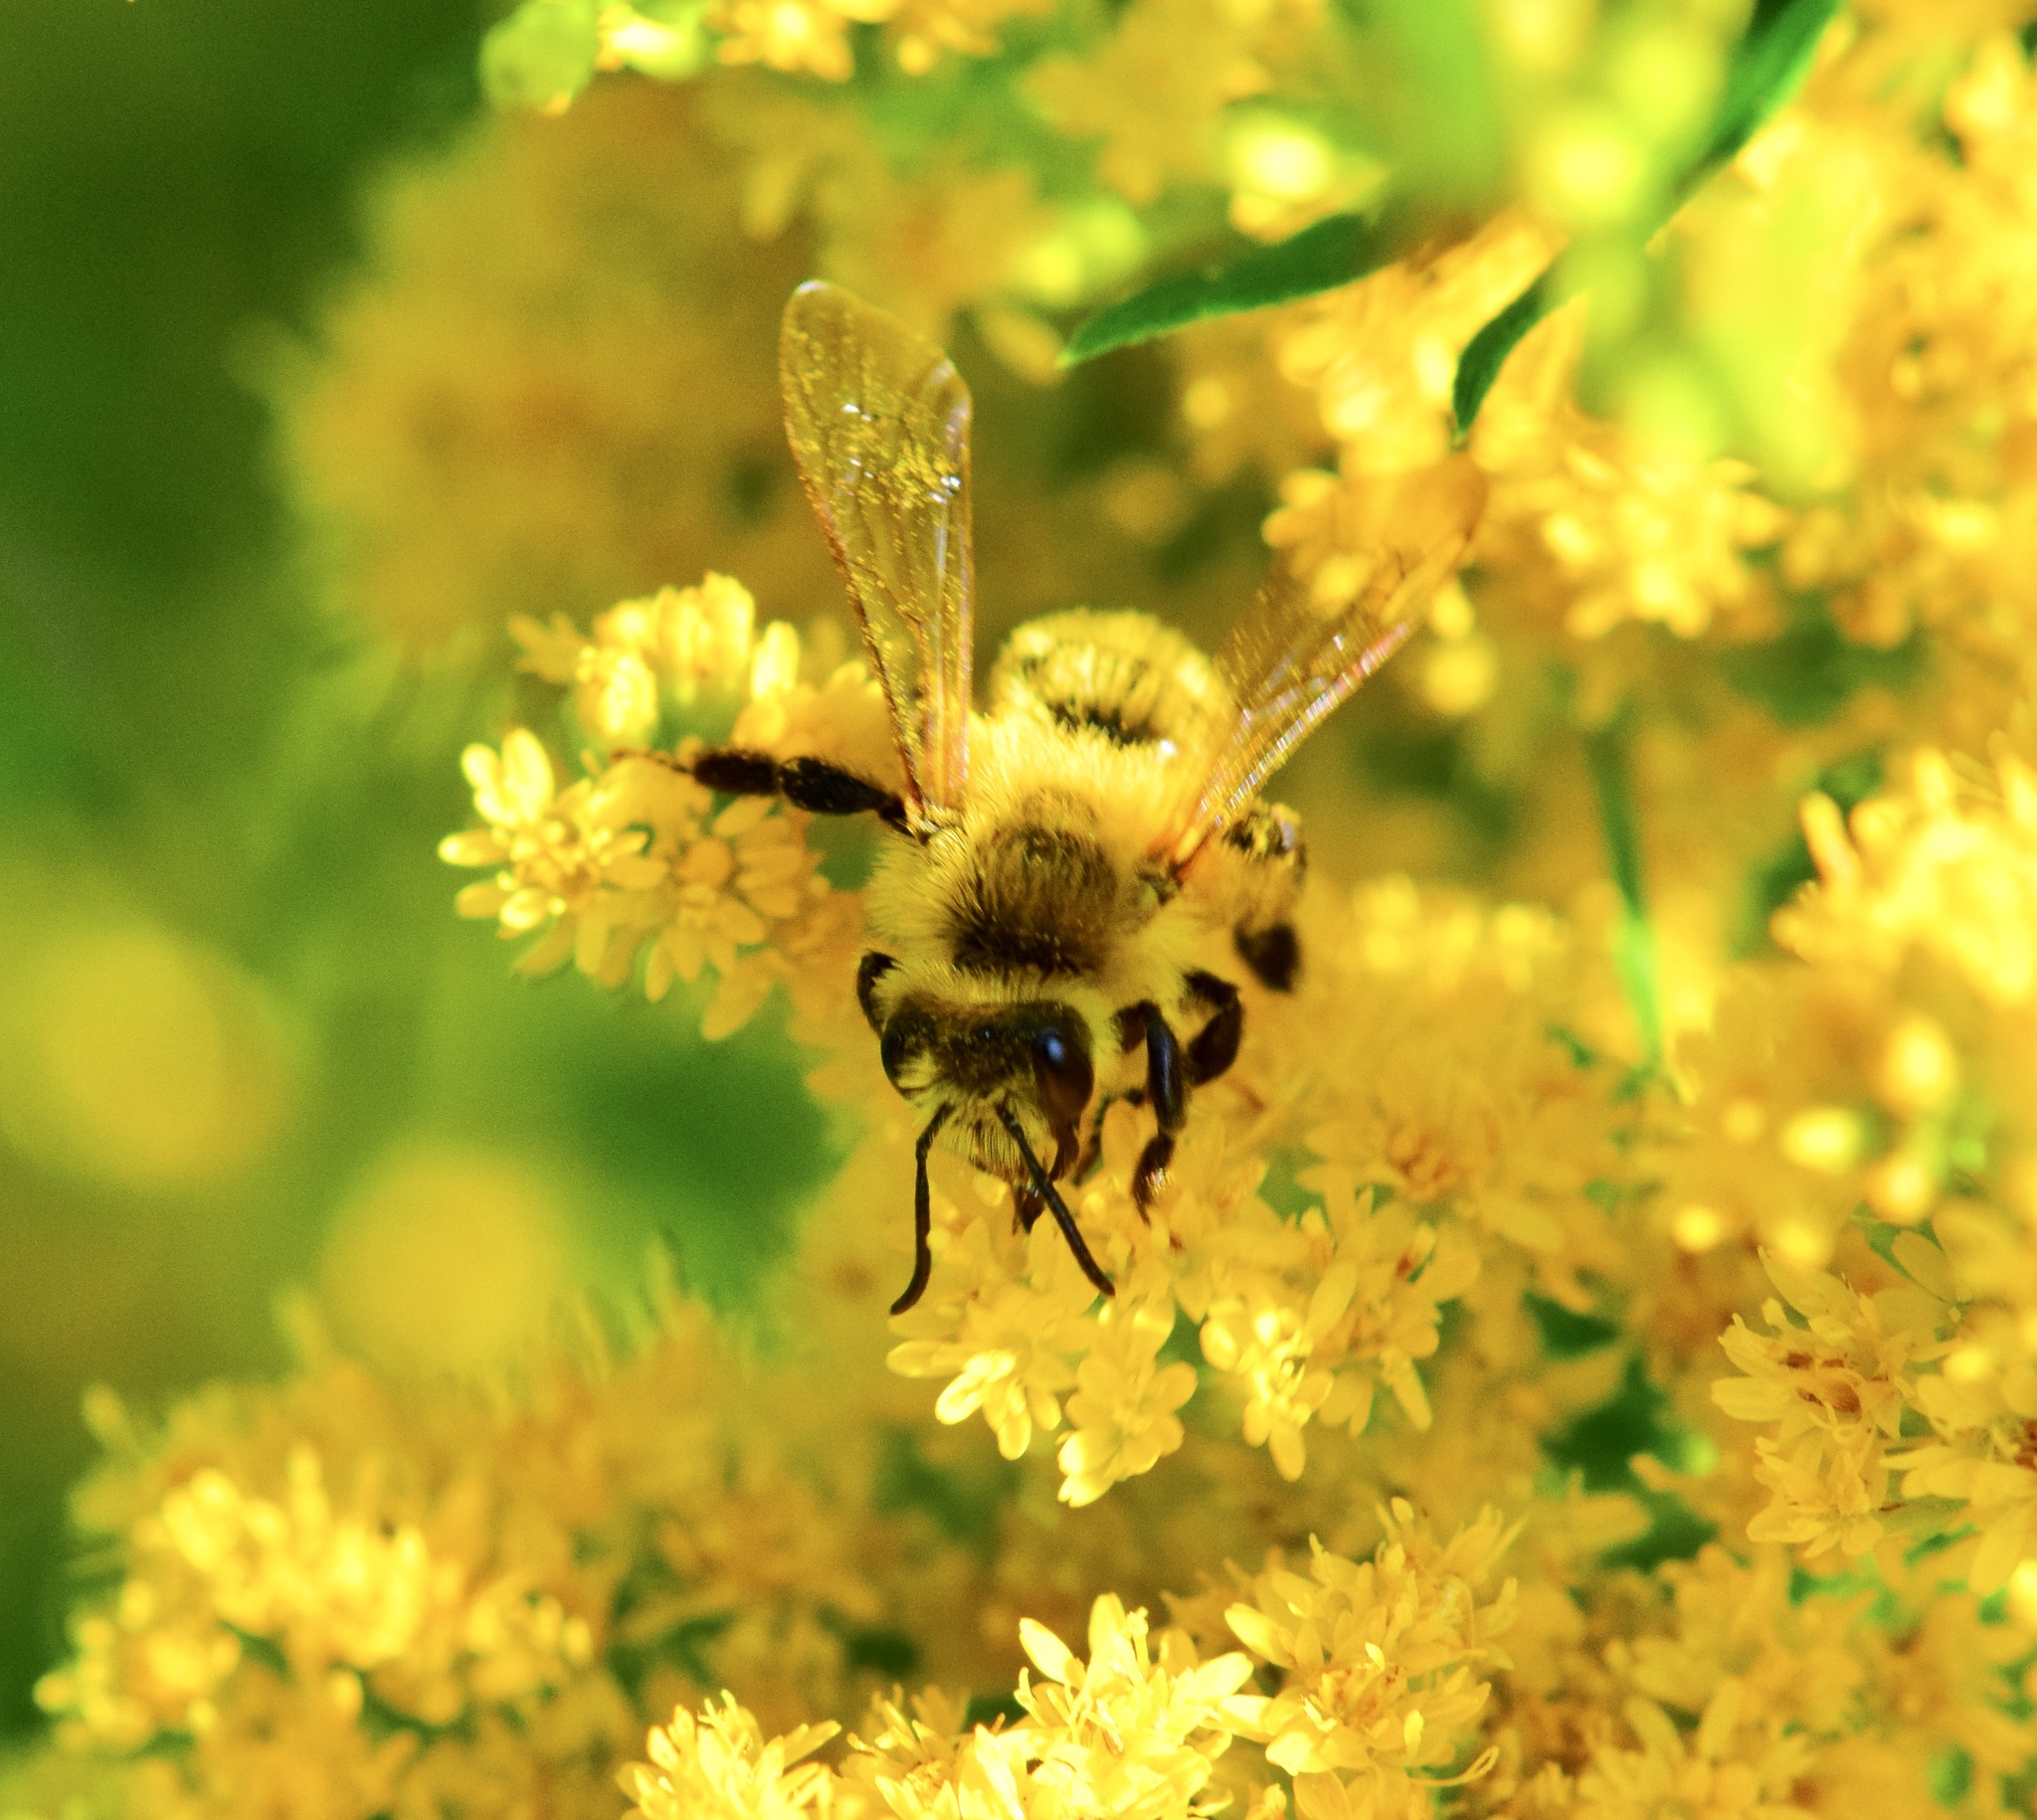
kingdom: Animalia
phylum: Arthropoda
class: Insecta
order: Hymenoptera
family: Andrenidae
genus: Andrena
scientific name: Andrena hirticincta
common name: Hairy-banded mining bee
